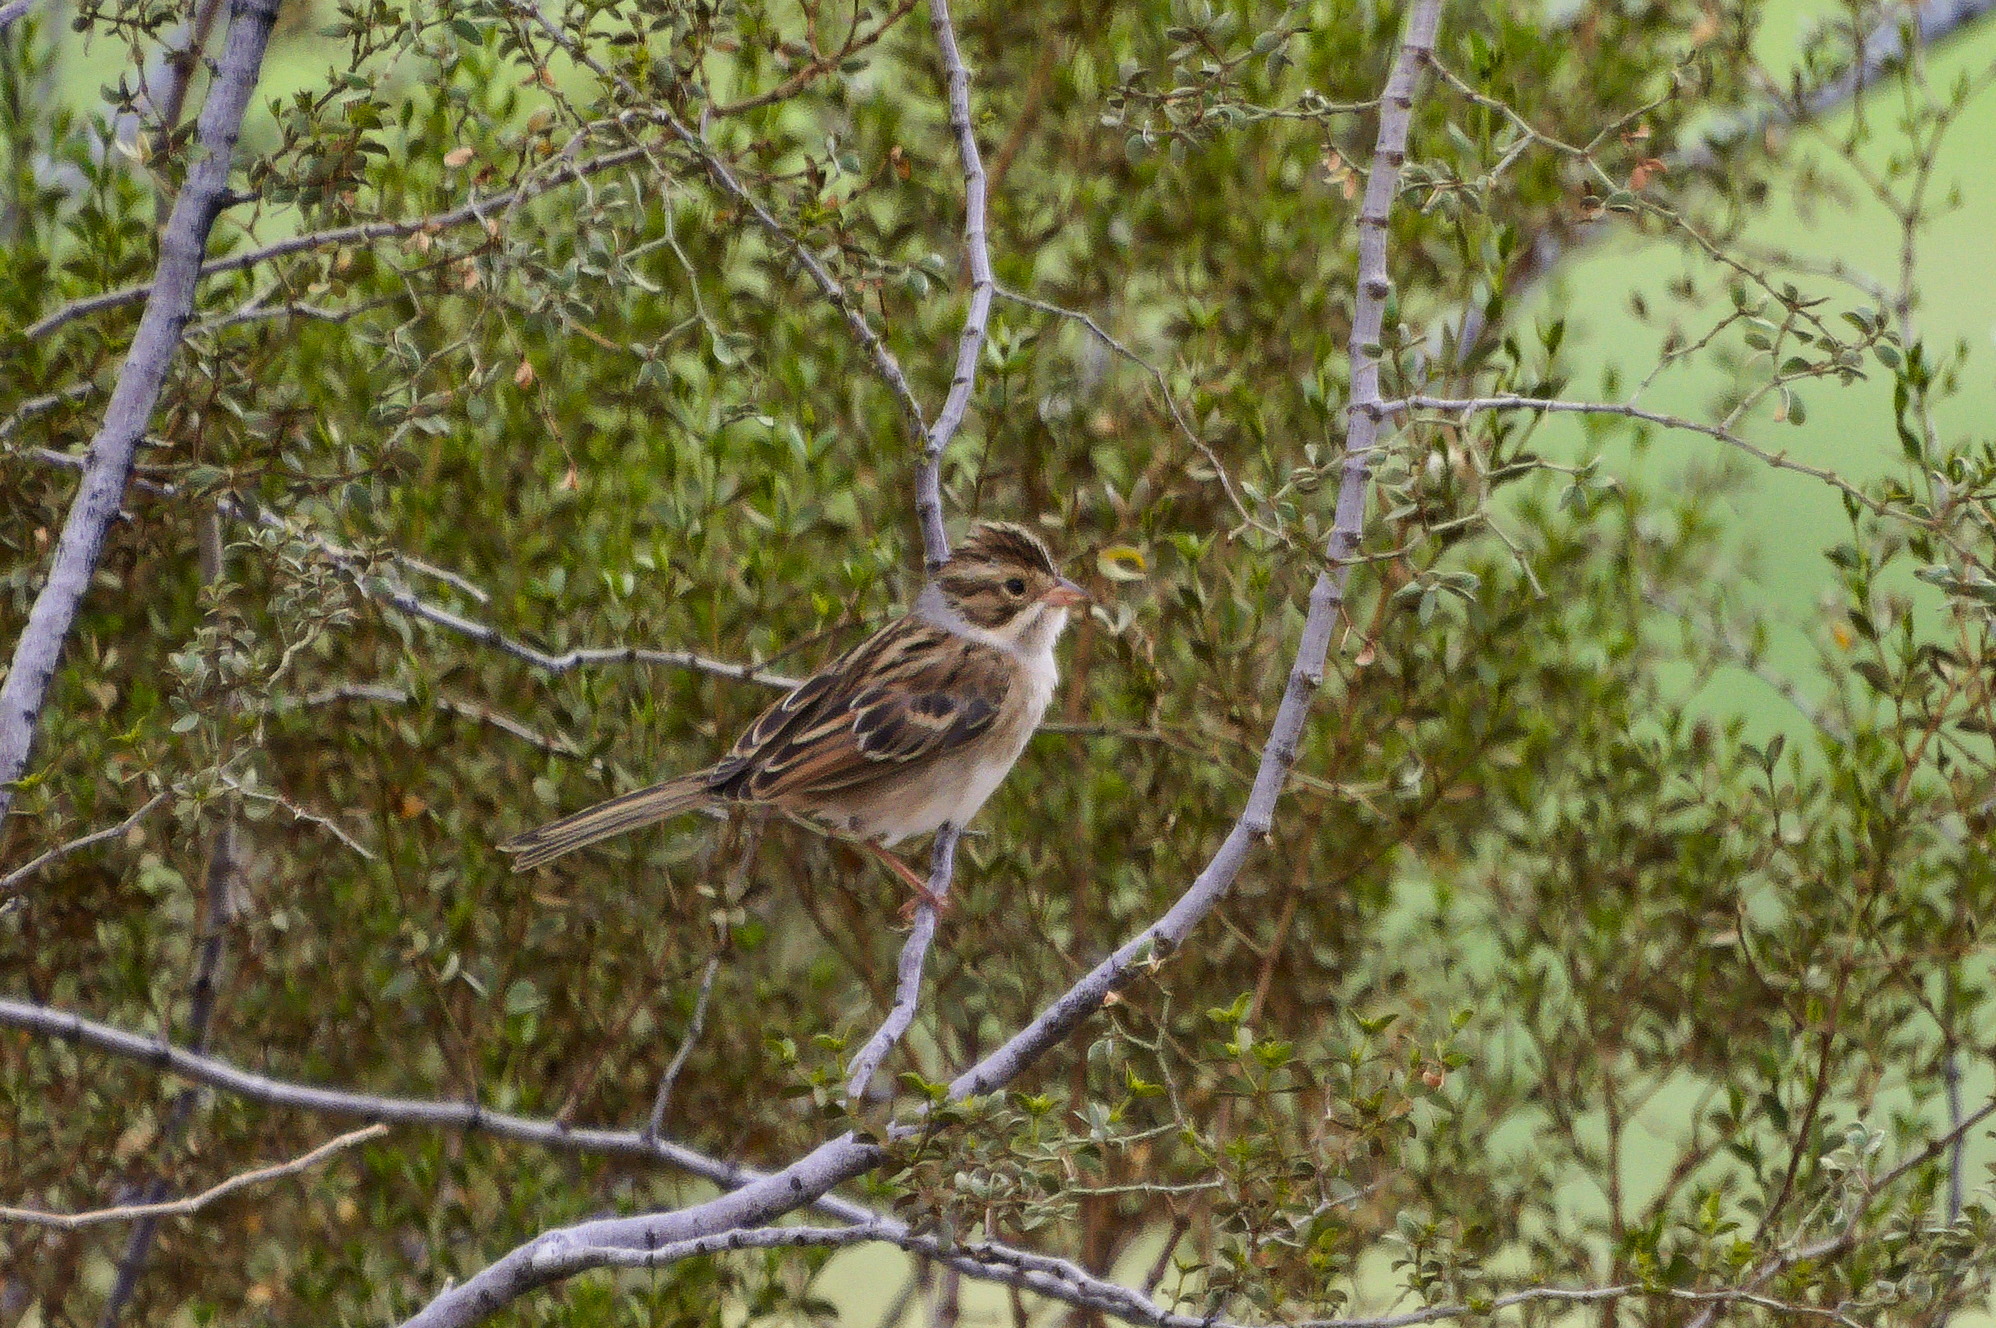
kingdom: Animalia
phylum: Chordata
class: Aves
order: Passeriformes
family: Passerellidae
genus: Spizella
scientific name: Spizella pallida
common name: Clay-colored sparrow
